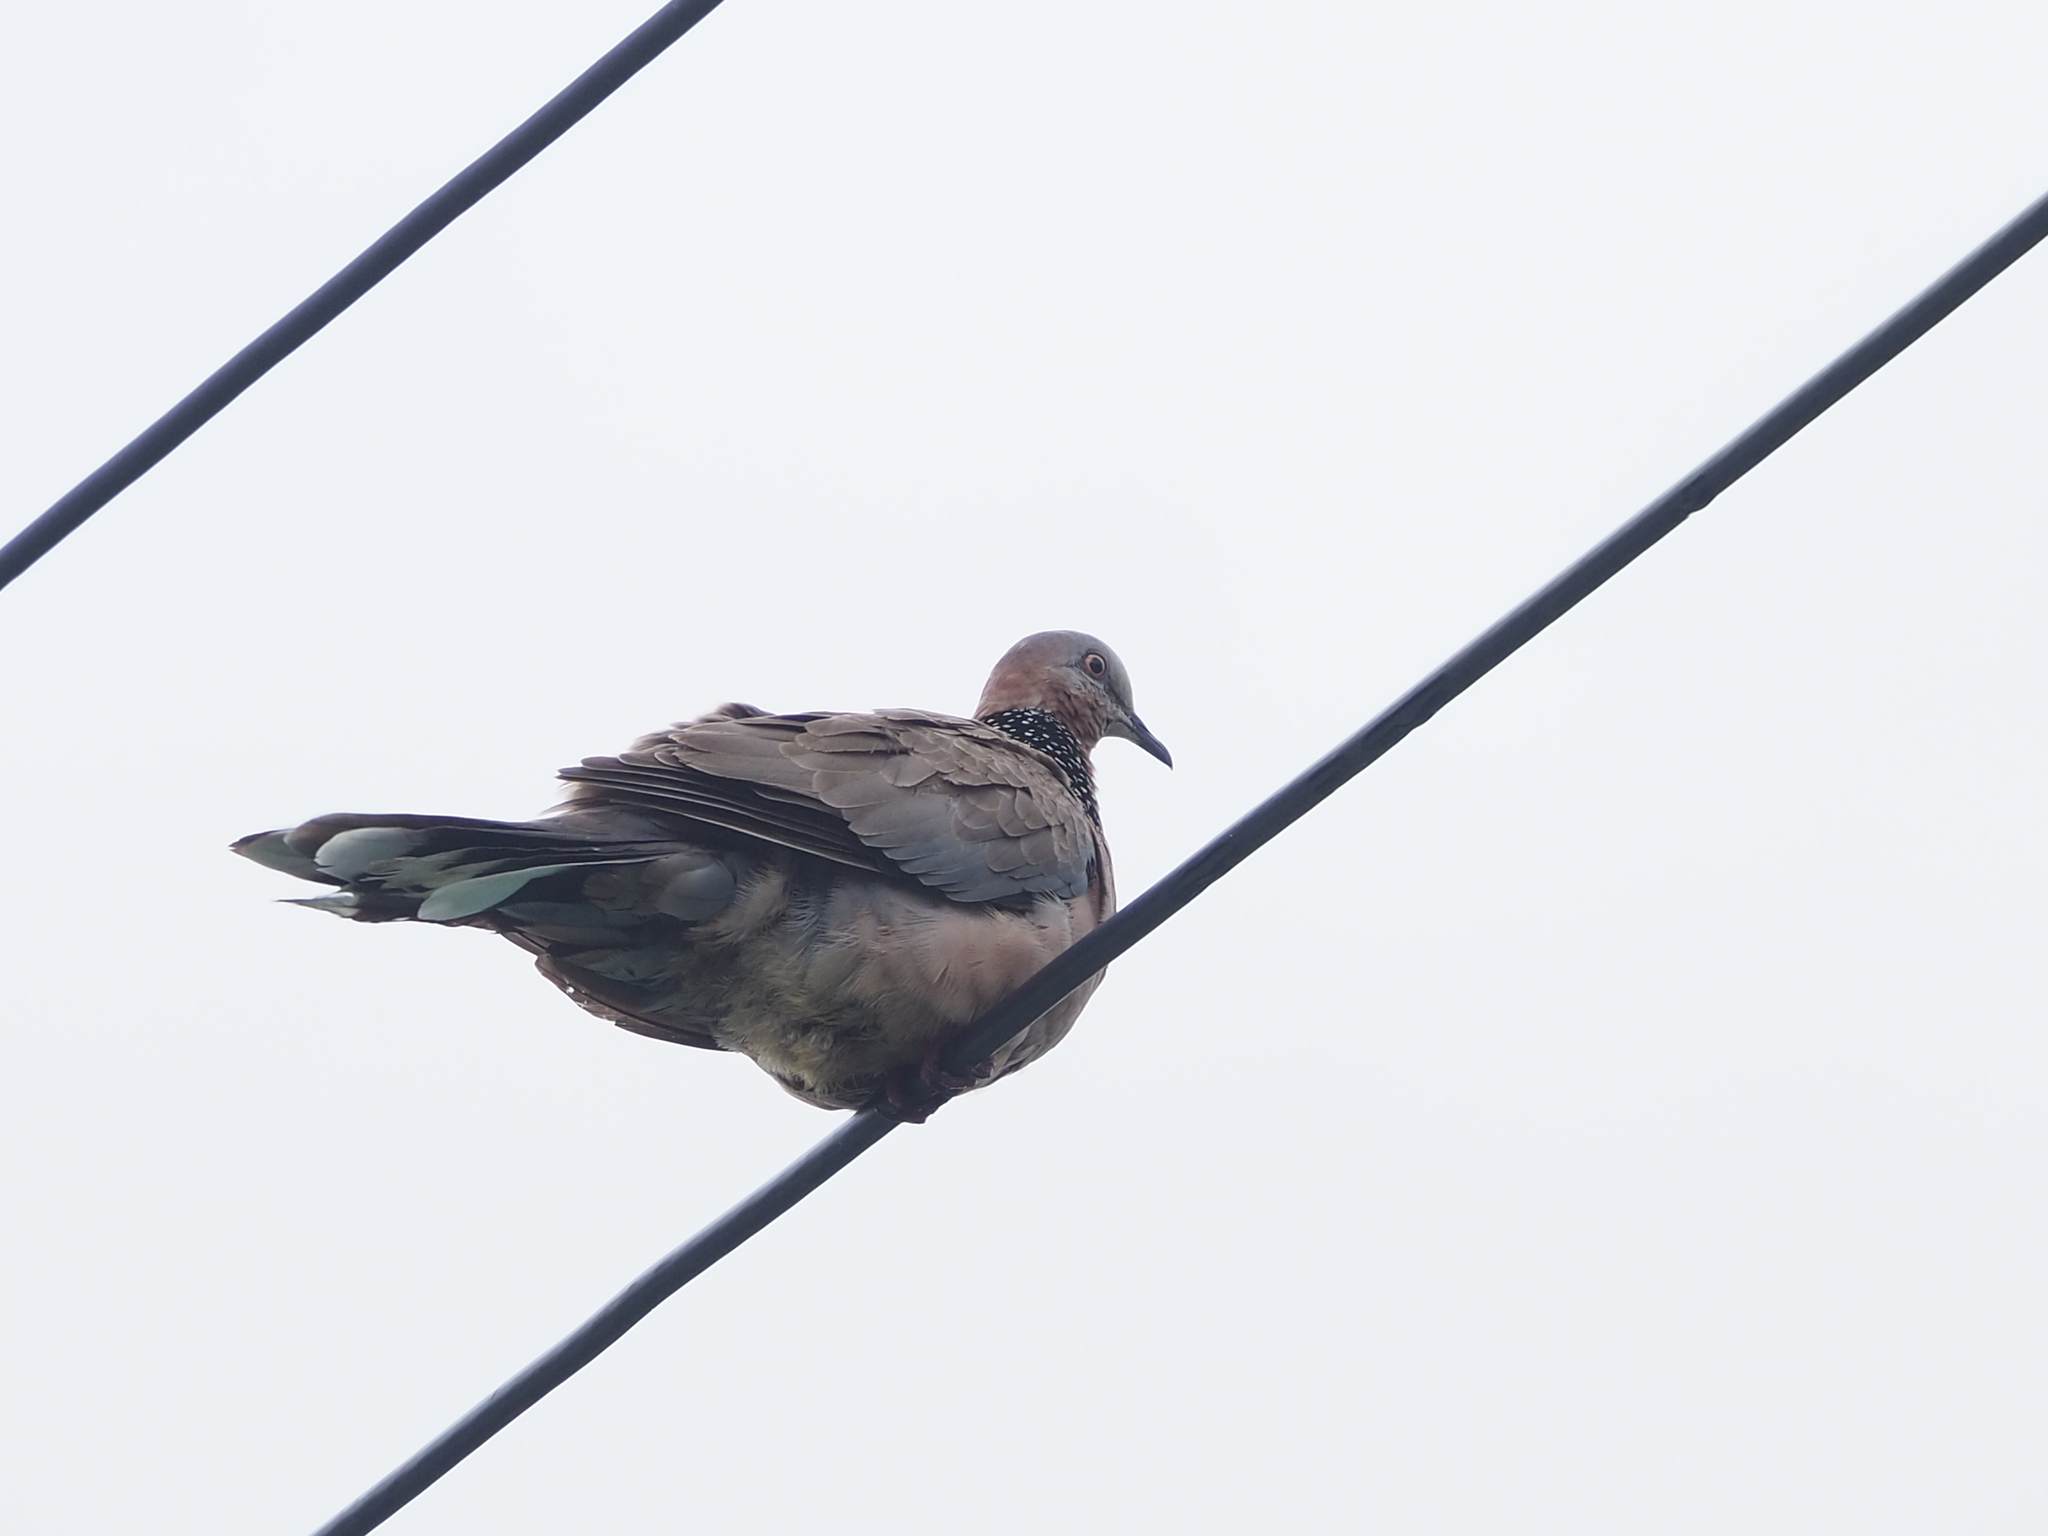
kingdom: Animalia
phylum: Chordata
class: Aves
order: Columbiformes
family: Columbidae
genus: Spilopelia
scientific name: Spilopelia chinensis
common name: Spotted dove
